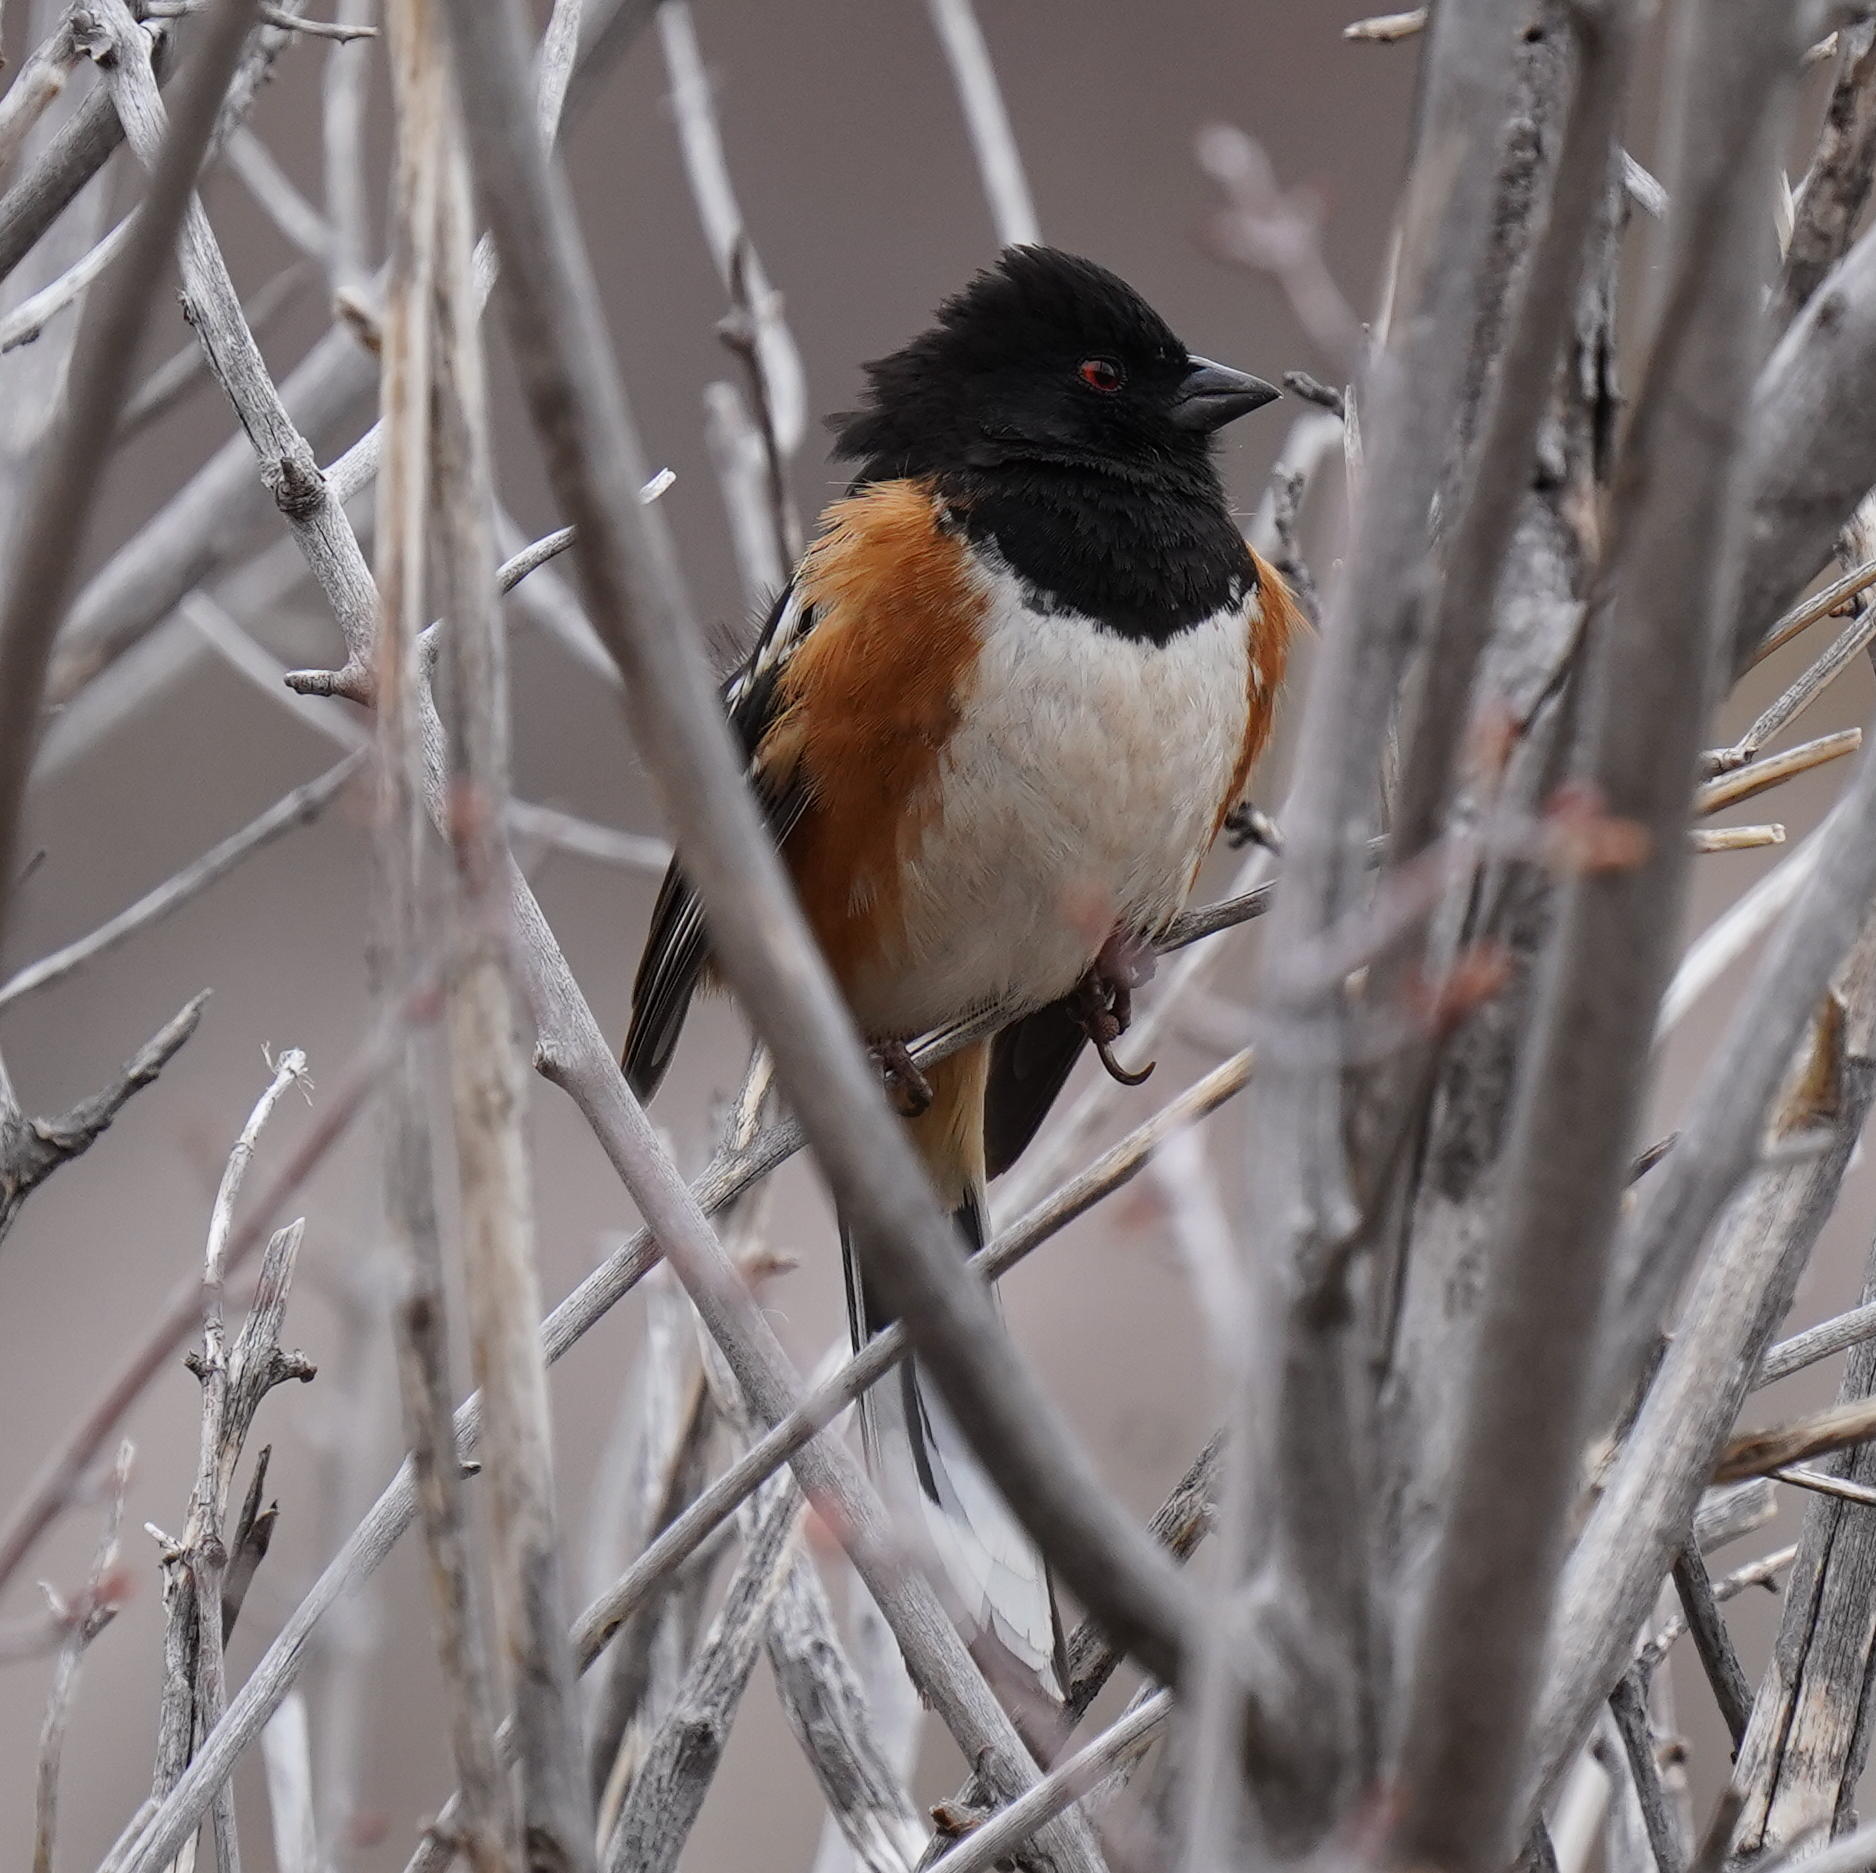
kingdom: Animalia
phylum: Chordata
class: Aves
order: Passeriformes
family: Passerellidae
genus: Pipilo
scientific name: Pipilo maculatus
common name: Spotted towhee
